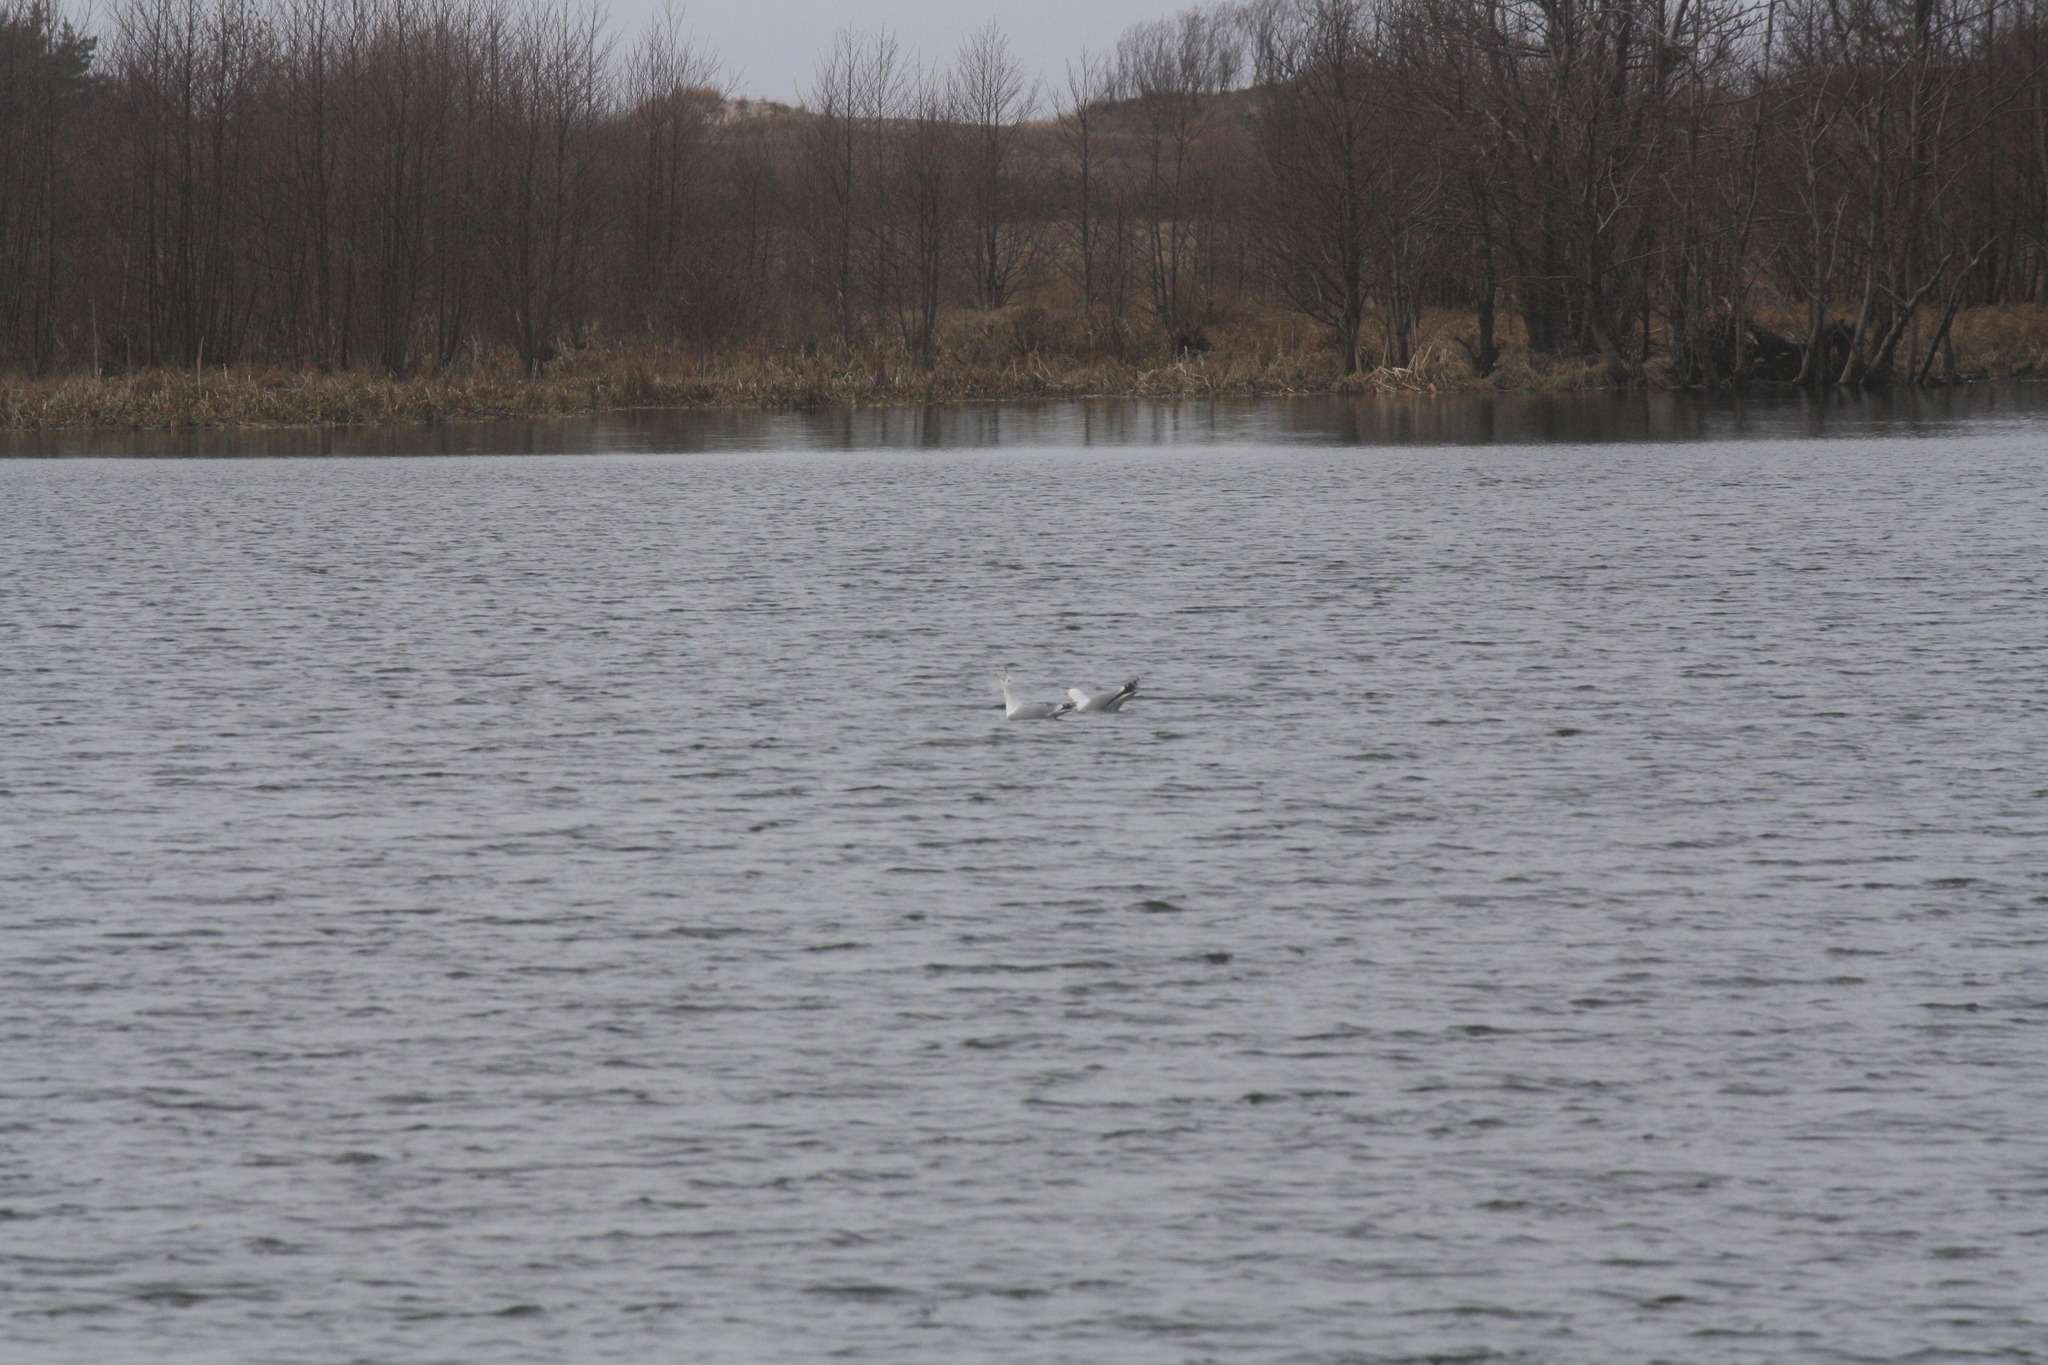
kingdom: Animalia
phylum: Chordata
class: Aves
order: Charadriiformes
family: Laridae
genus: Larus
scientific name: Larus argentatus
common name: Herring gull
